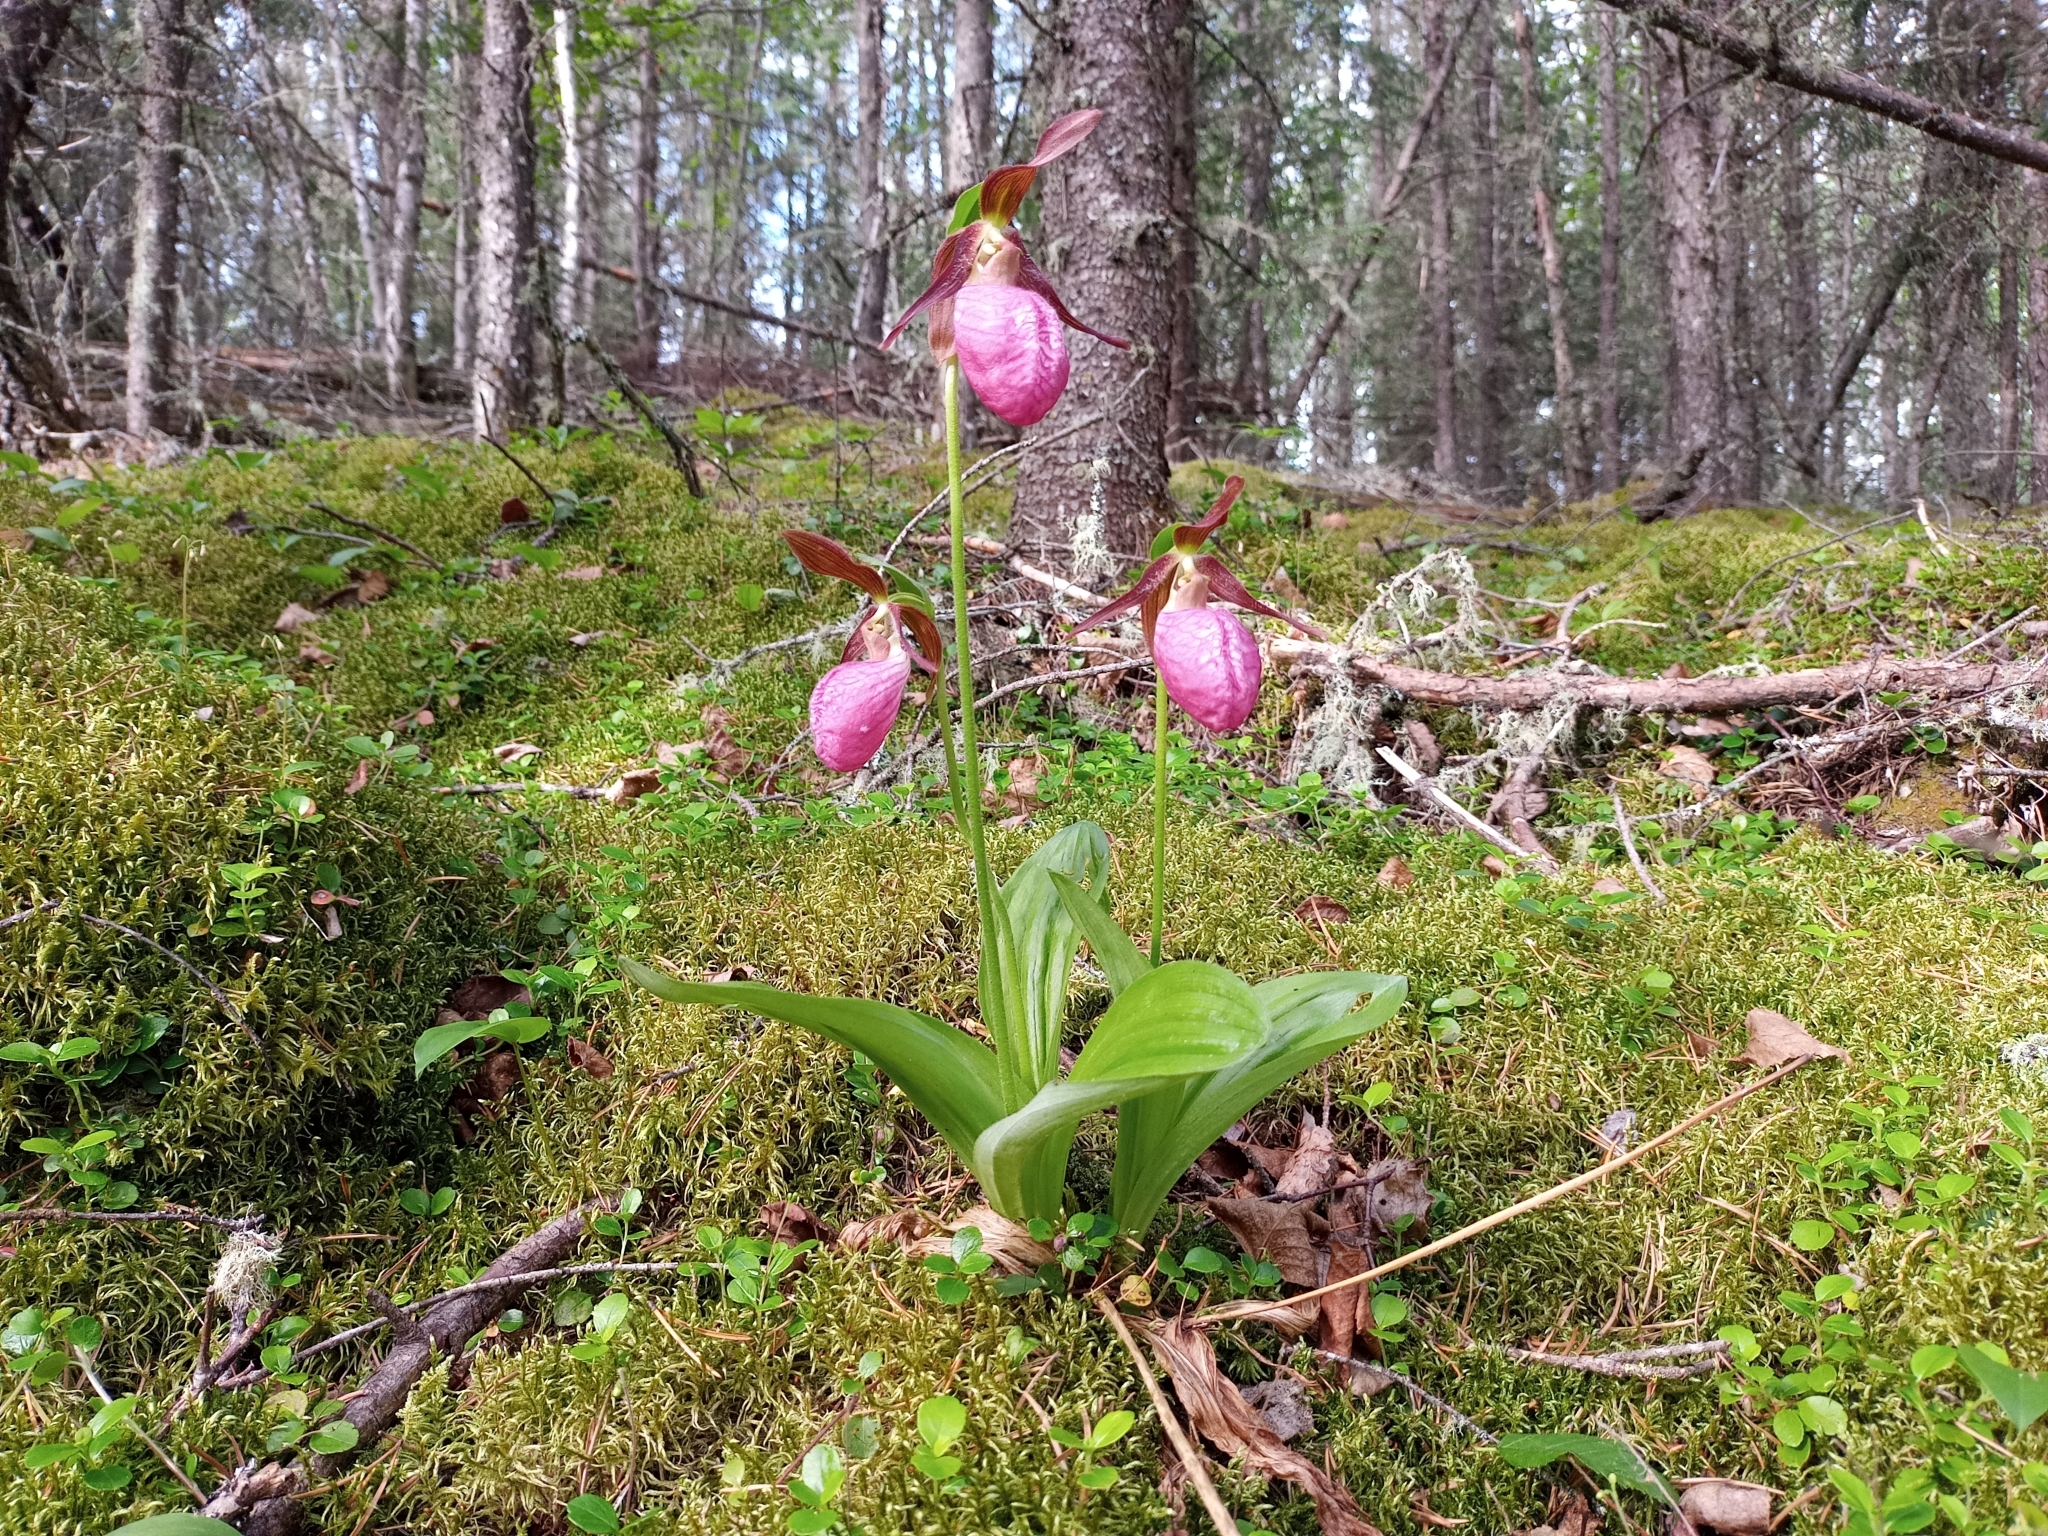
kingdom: Plantae
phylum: Tracheophyta
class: Liliopsida
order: Asparagales
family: Orchidaceae
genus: Cypripedium
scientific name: Cypripedium acaule
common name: Pink lady's-slipper
